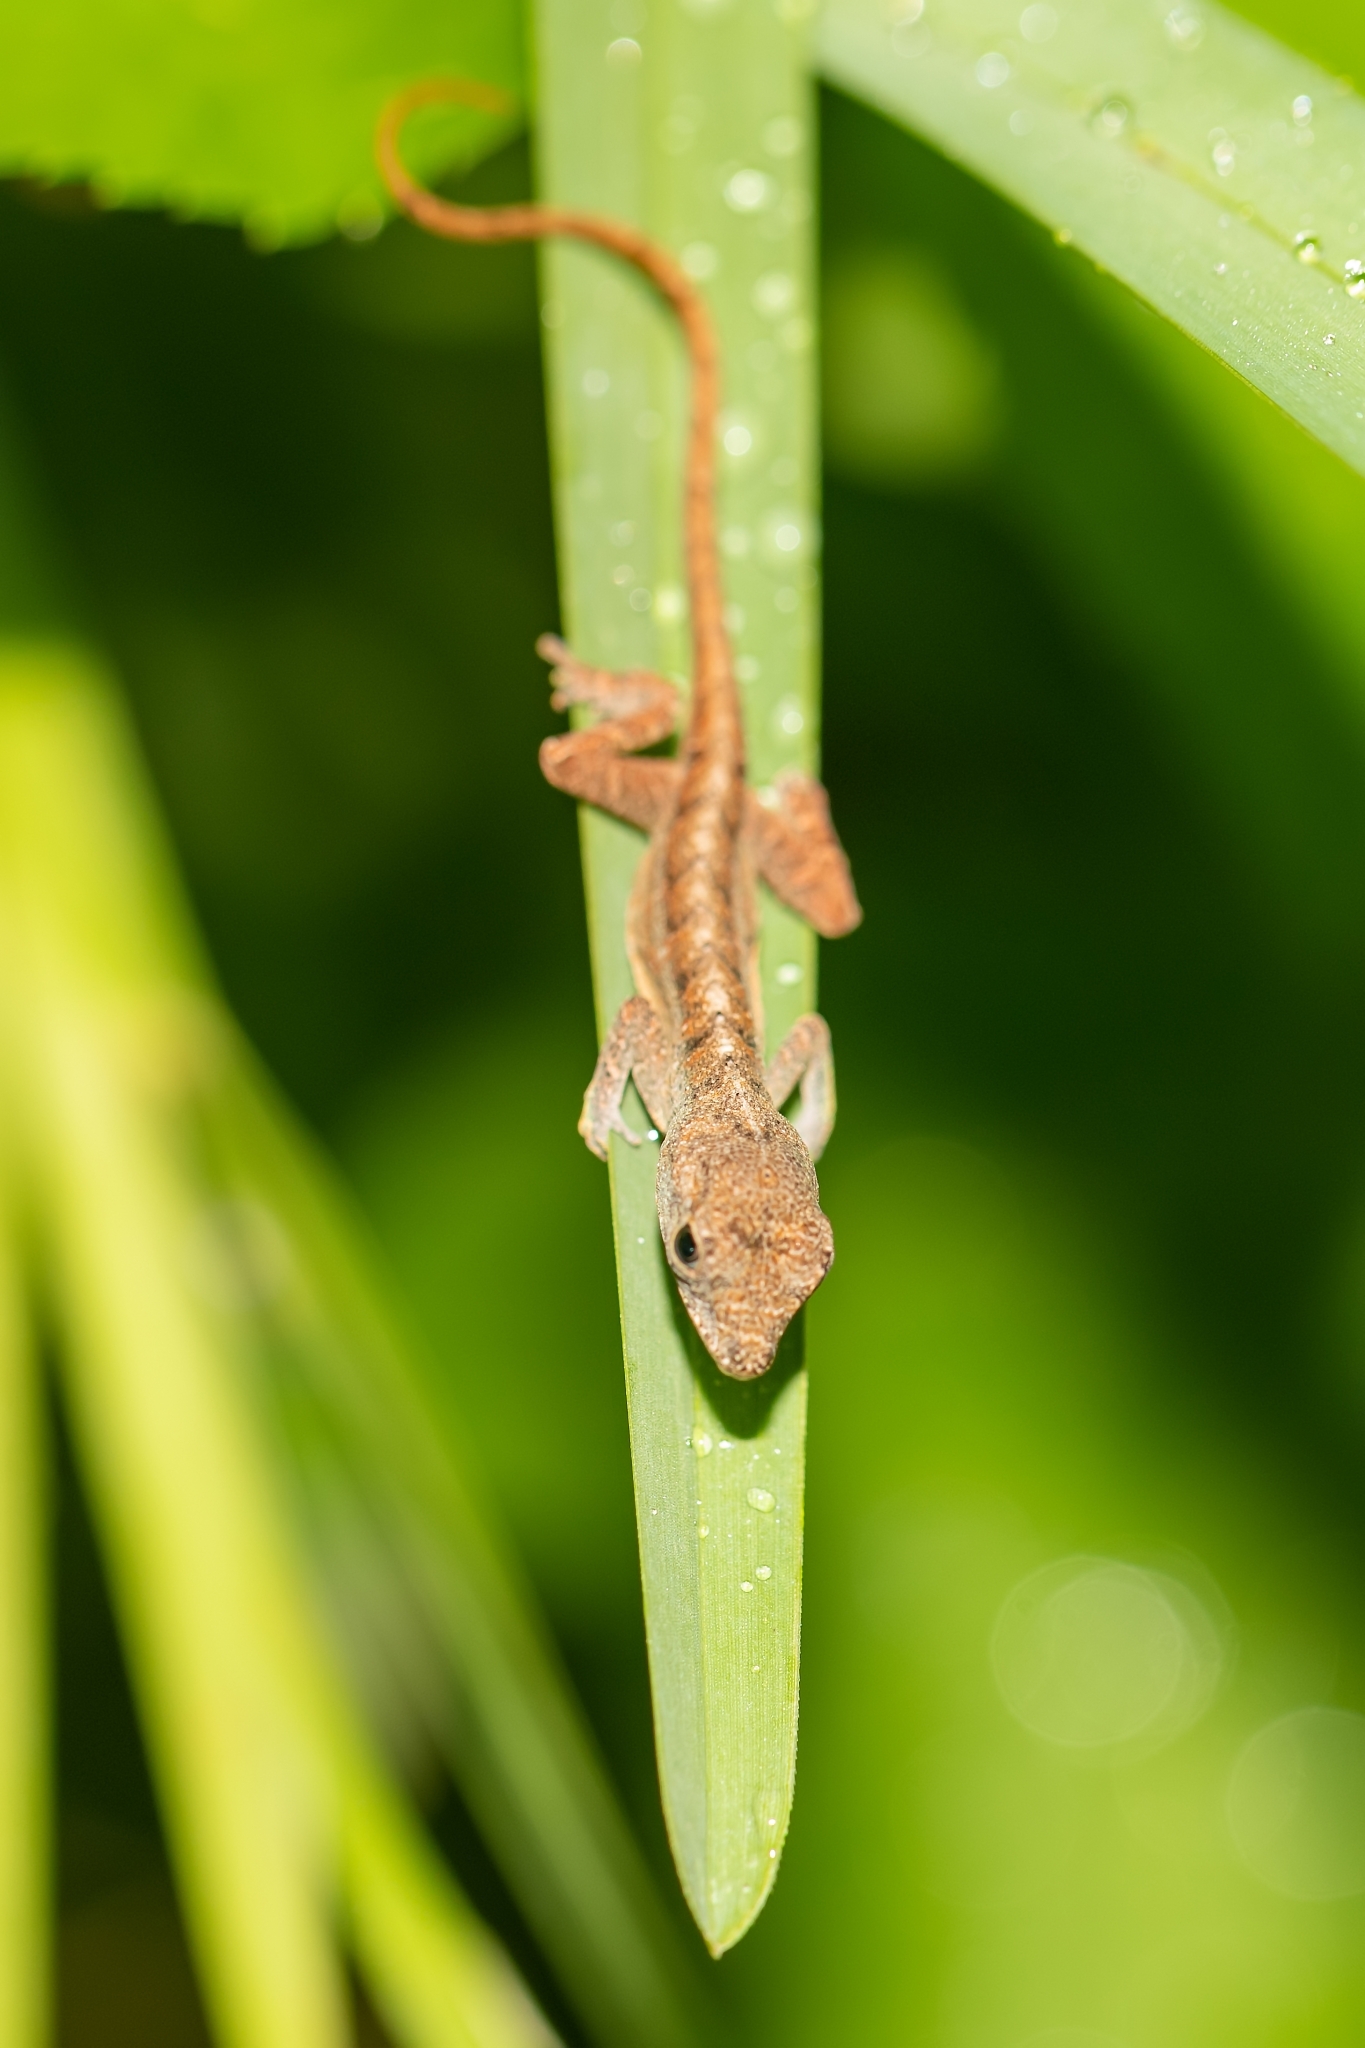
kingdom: Animalia
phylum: Chordata
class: Squamata
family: Dactyloidae
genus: Anolis
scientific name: Anolis sagrei
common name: Brown anole
